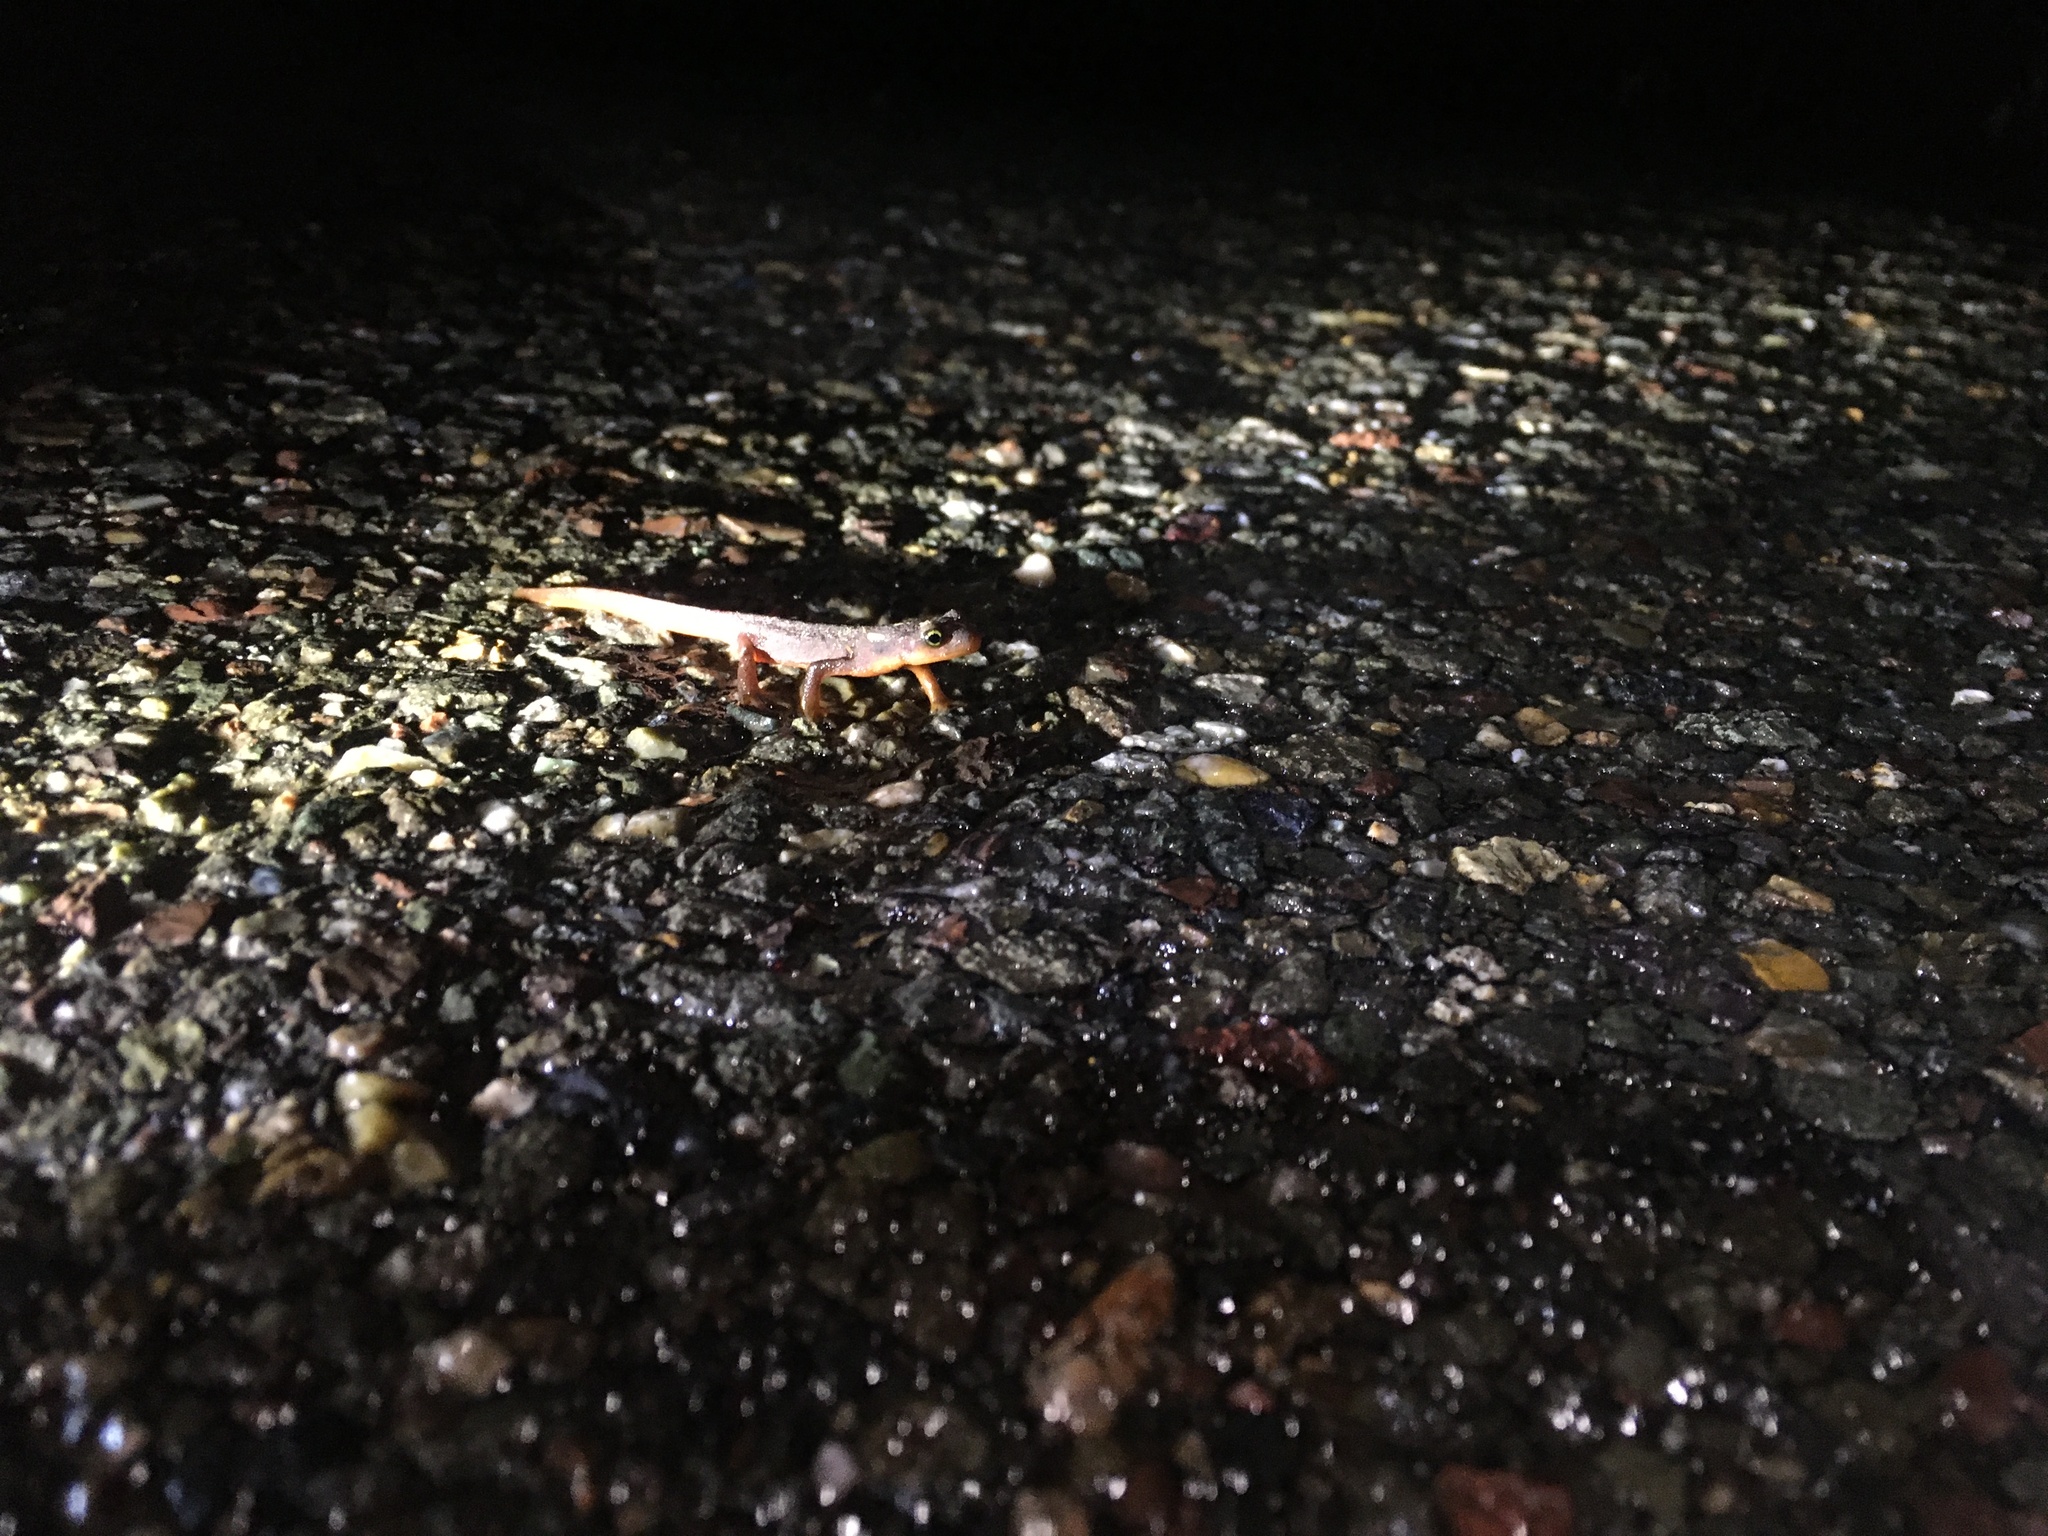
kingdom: Animalia
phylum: Chordata
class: Amphibia
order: Caudata
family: Salamandridae
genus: Taricha
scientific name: Taricha torosa
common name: California newt
